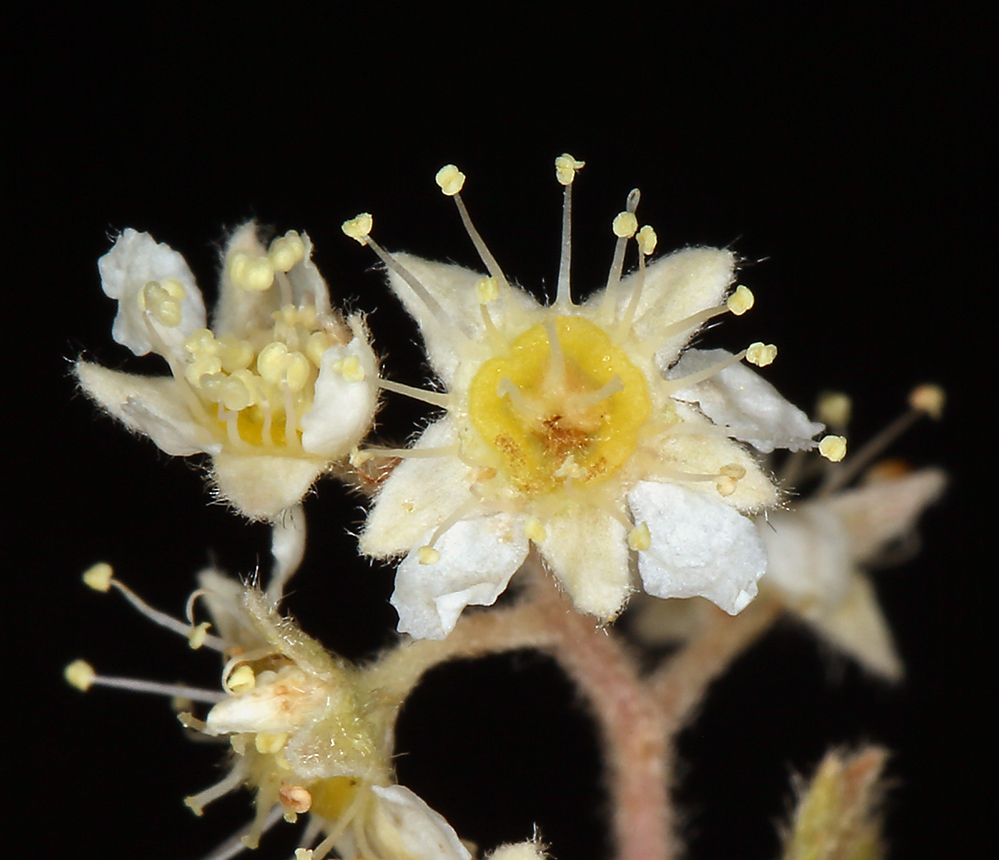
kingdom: Plantae
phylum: Tracheophyta
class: Magnoliopsida
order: Rosales
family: Rosaceae
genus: Holodiscus
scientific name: Holodiscus discolor
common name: Oceanspray
